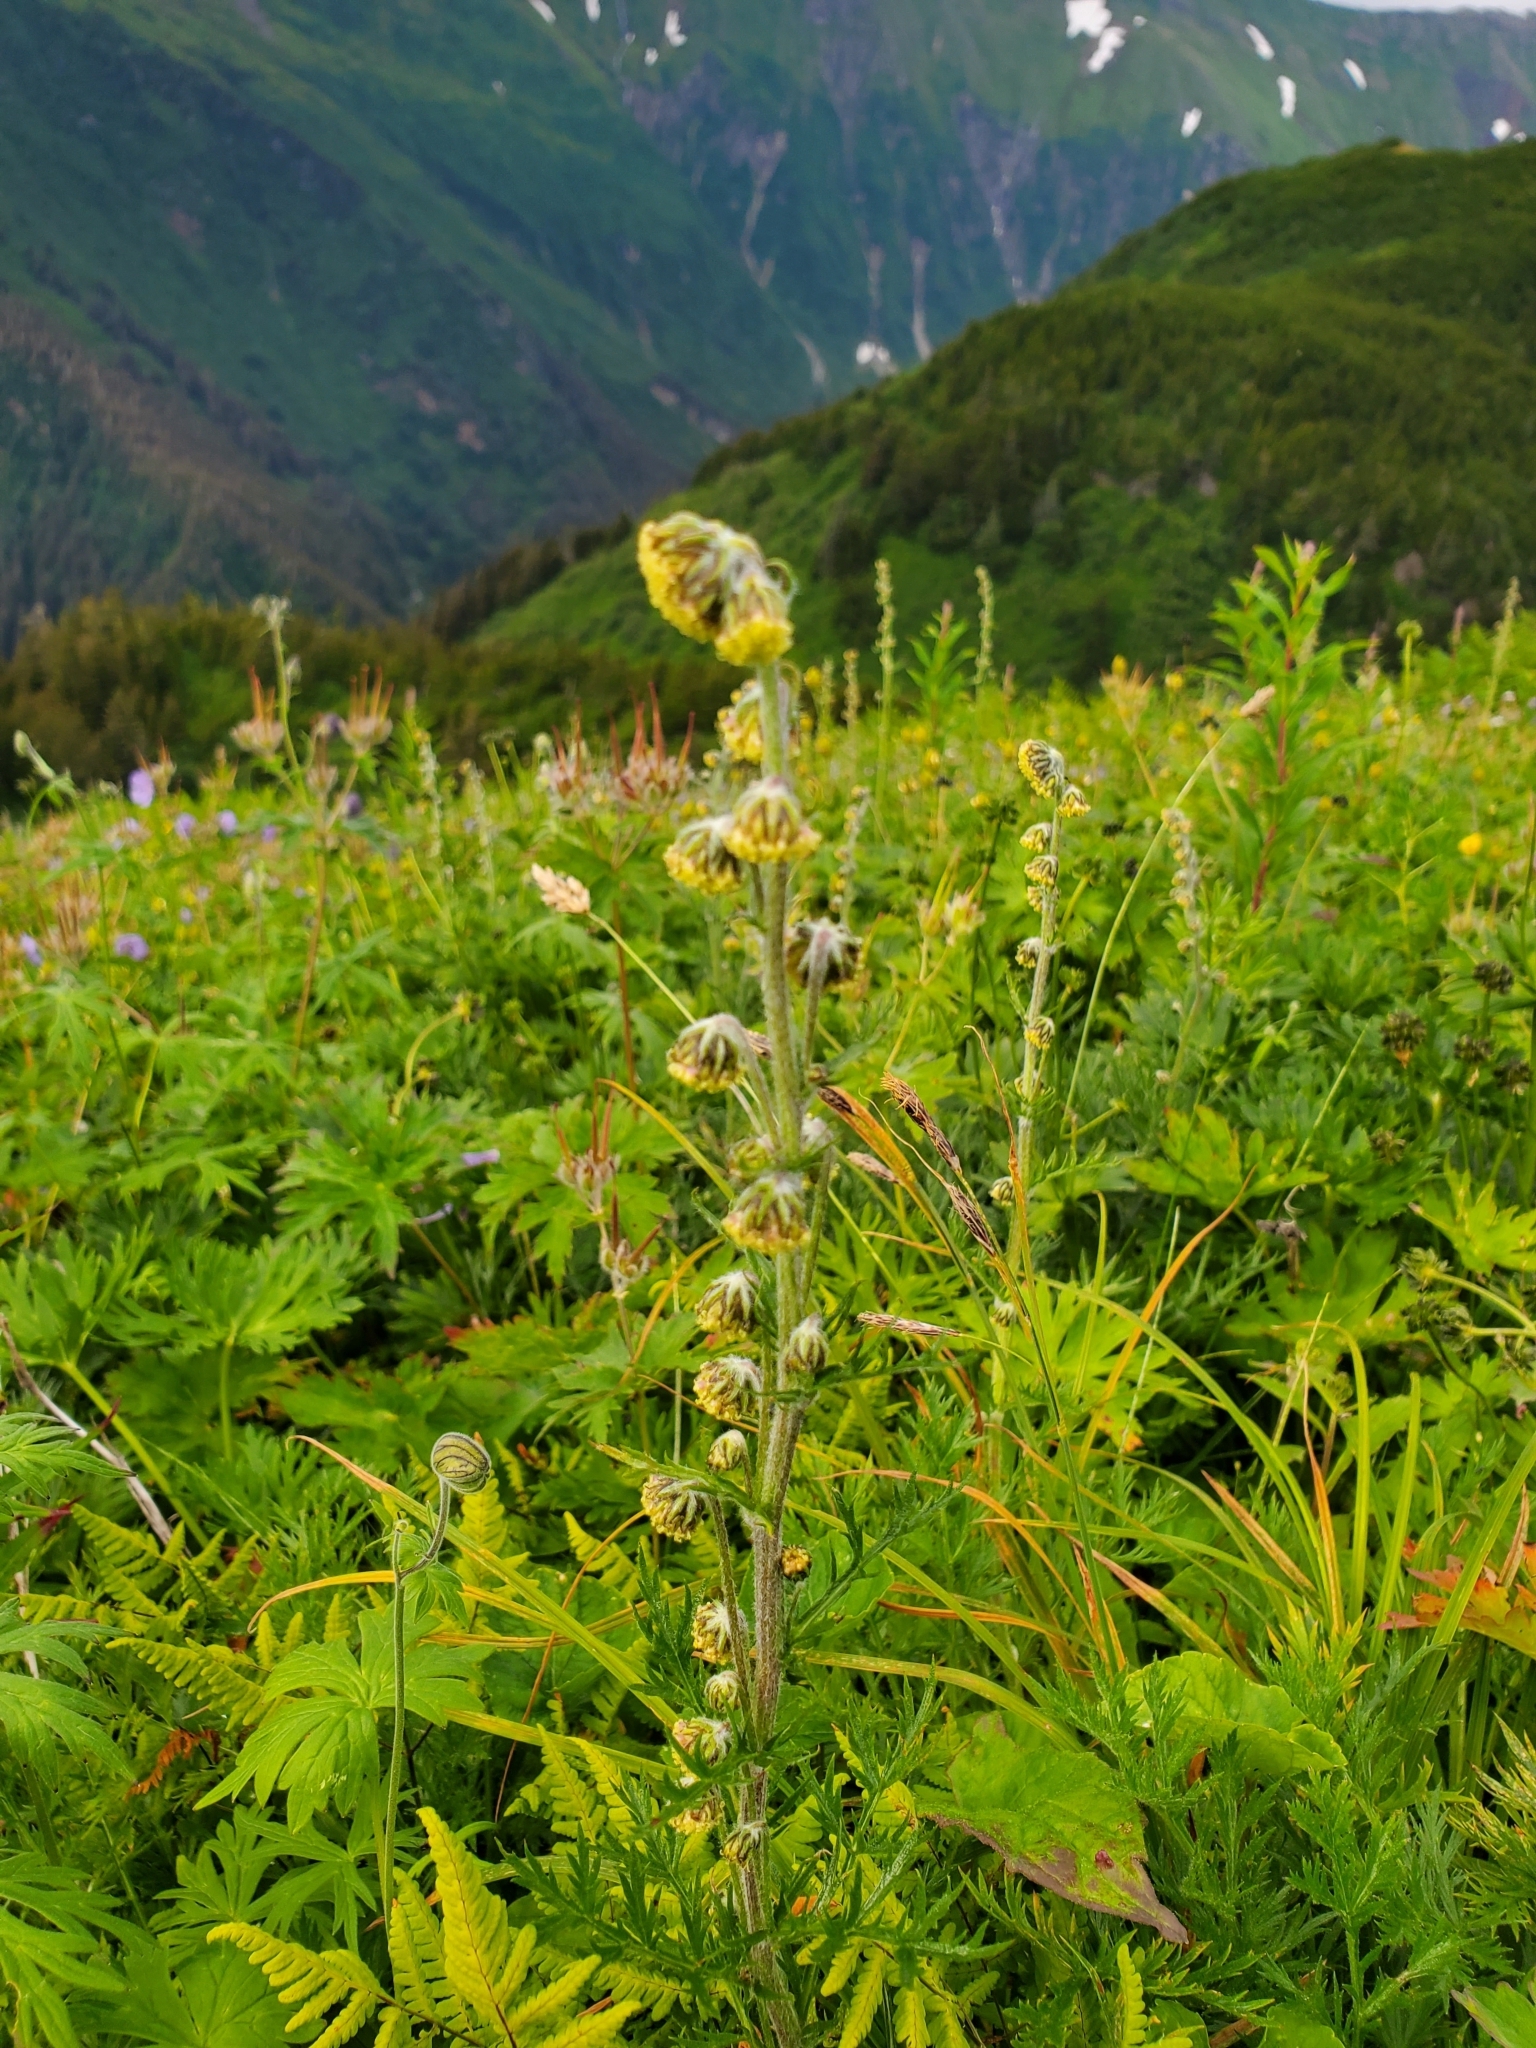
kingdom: Plantae
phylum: Tracheophyta
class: Magnoliopsida
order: Asterales
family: Asteraceae
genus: Artemisia
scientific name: Artemisia norvegica
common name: Norwegian mugwort
